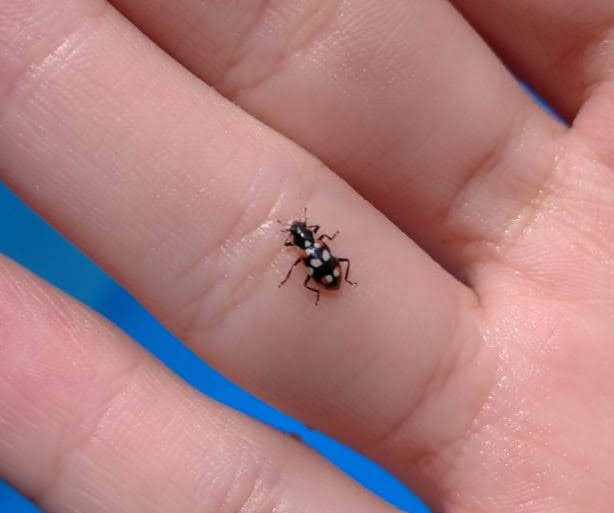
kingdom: Animalia
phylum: Arthropoda
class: Insecta
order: Coleoptera
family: Coccinellidae
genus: Eriopis
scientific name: Eriopis connexa
